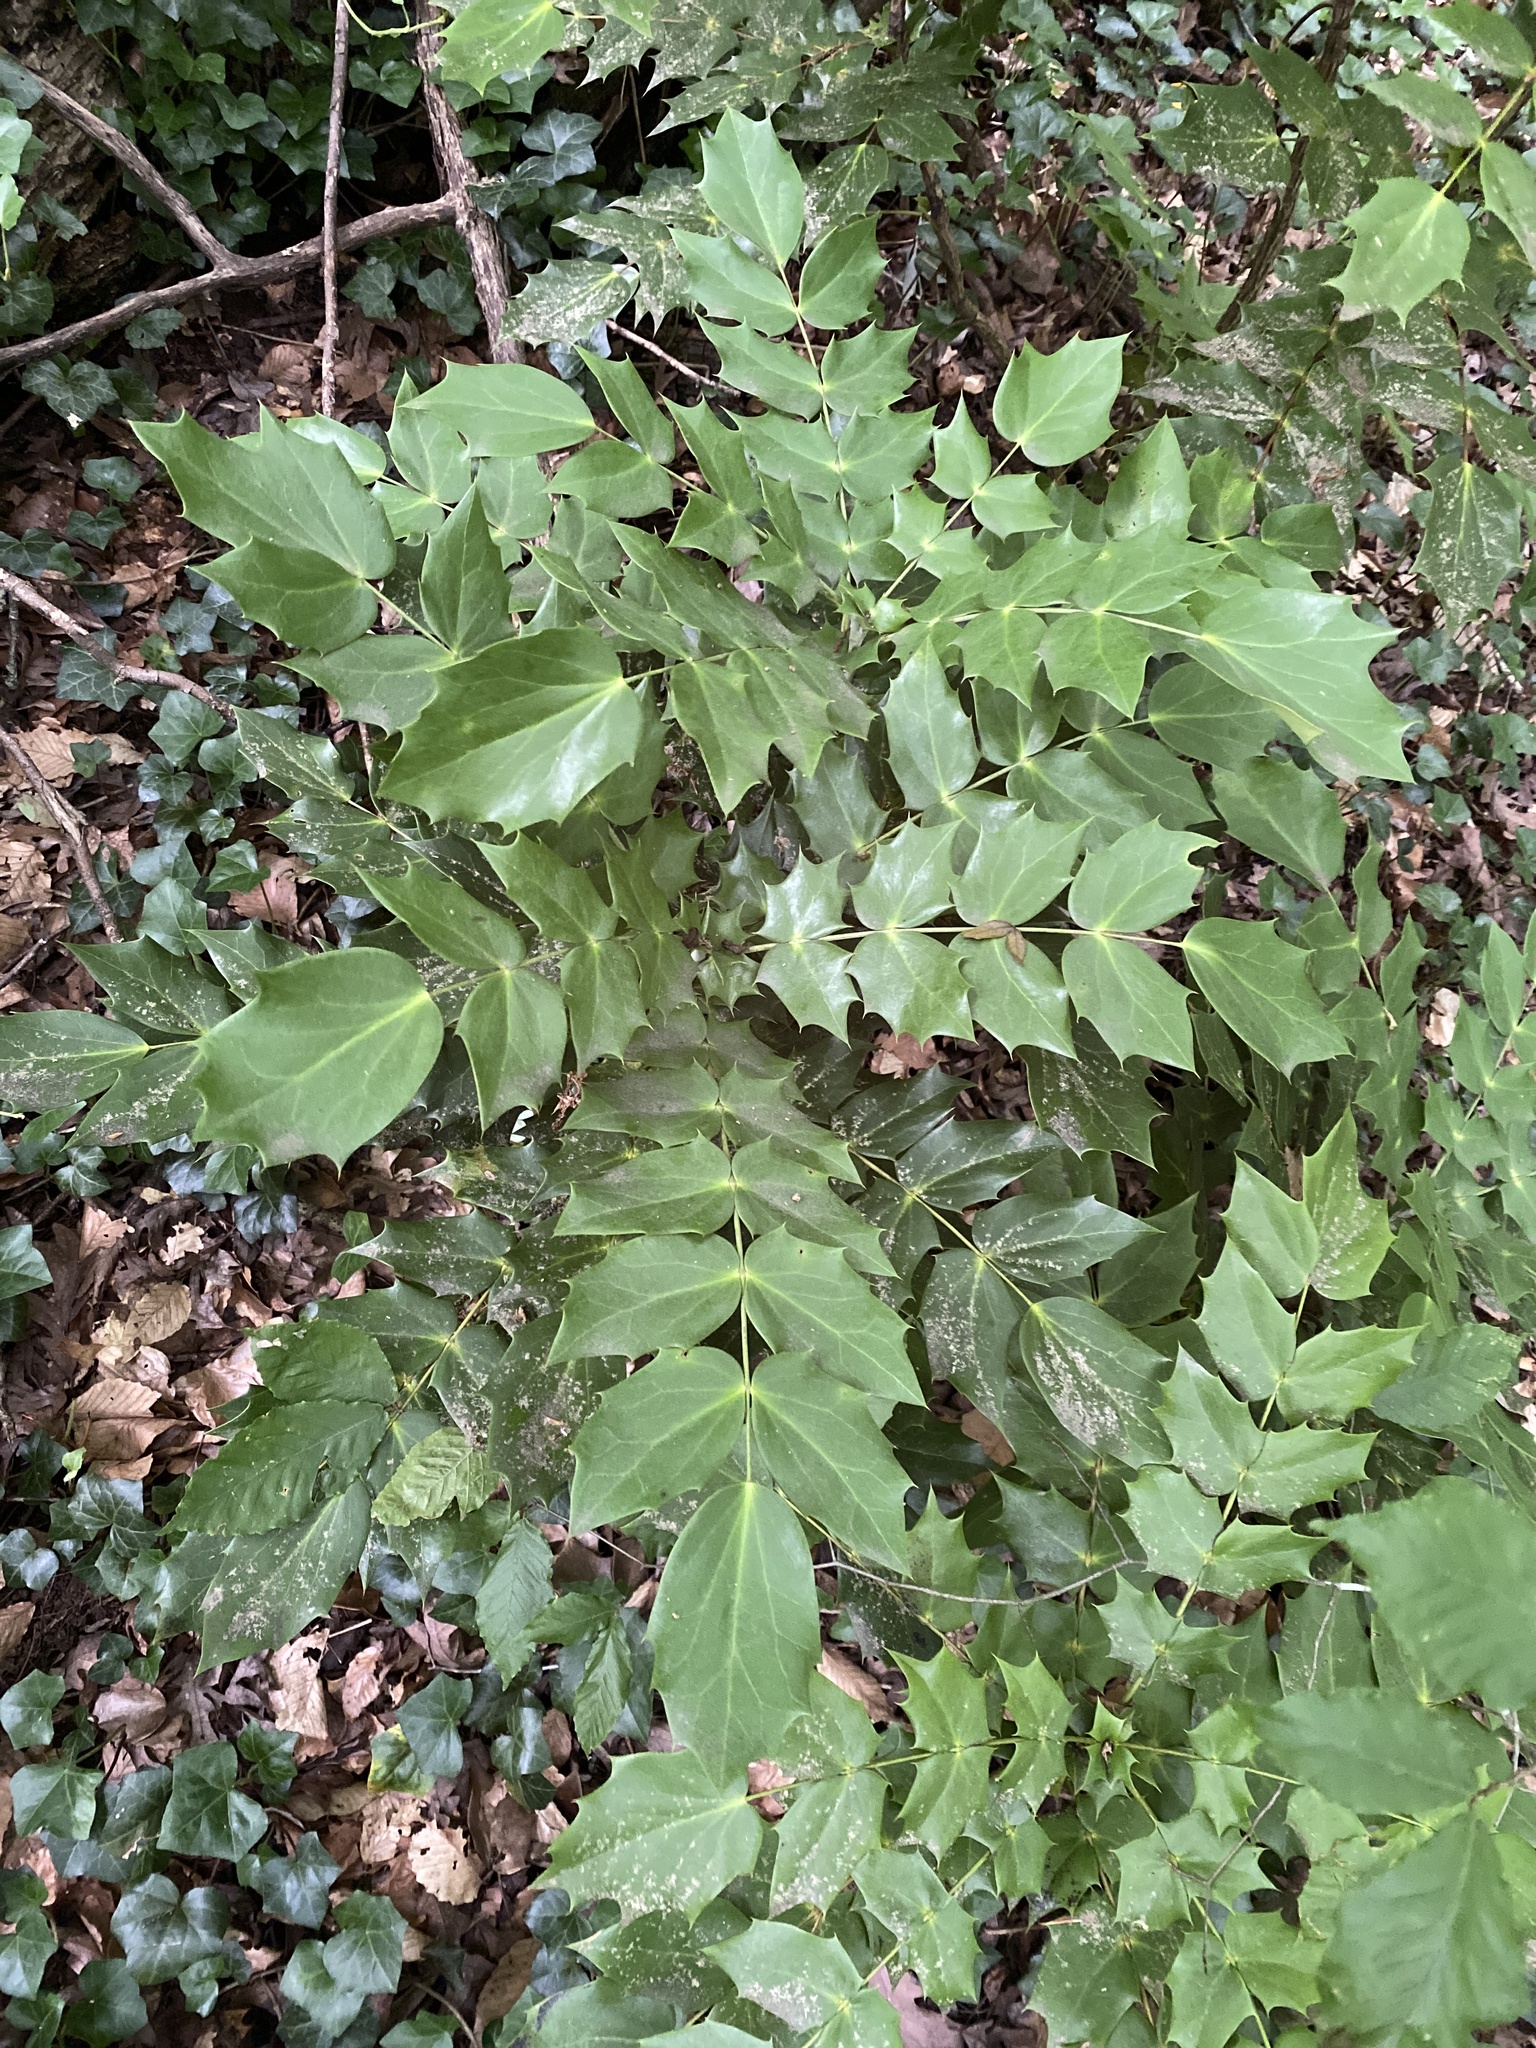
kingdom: Plantae
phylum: Tracheophyta
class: Magnoliopsida
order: Ranunculales
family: Berberidaceae
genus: Mahonia
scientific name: Mahonia bealei
